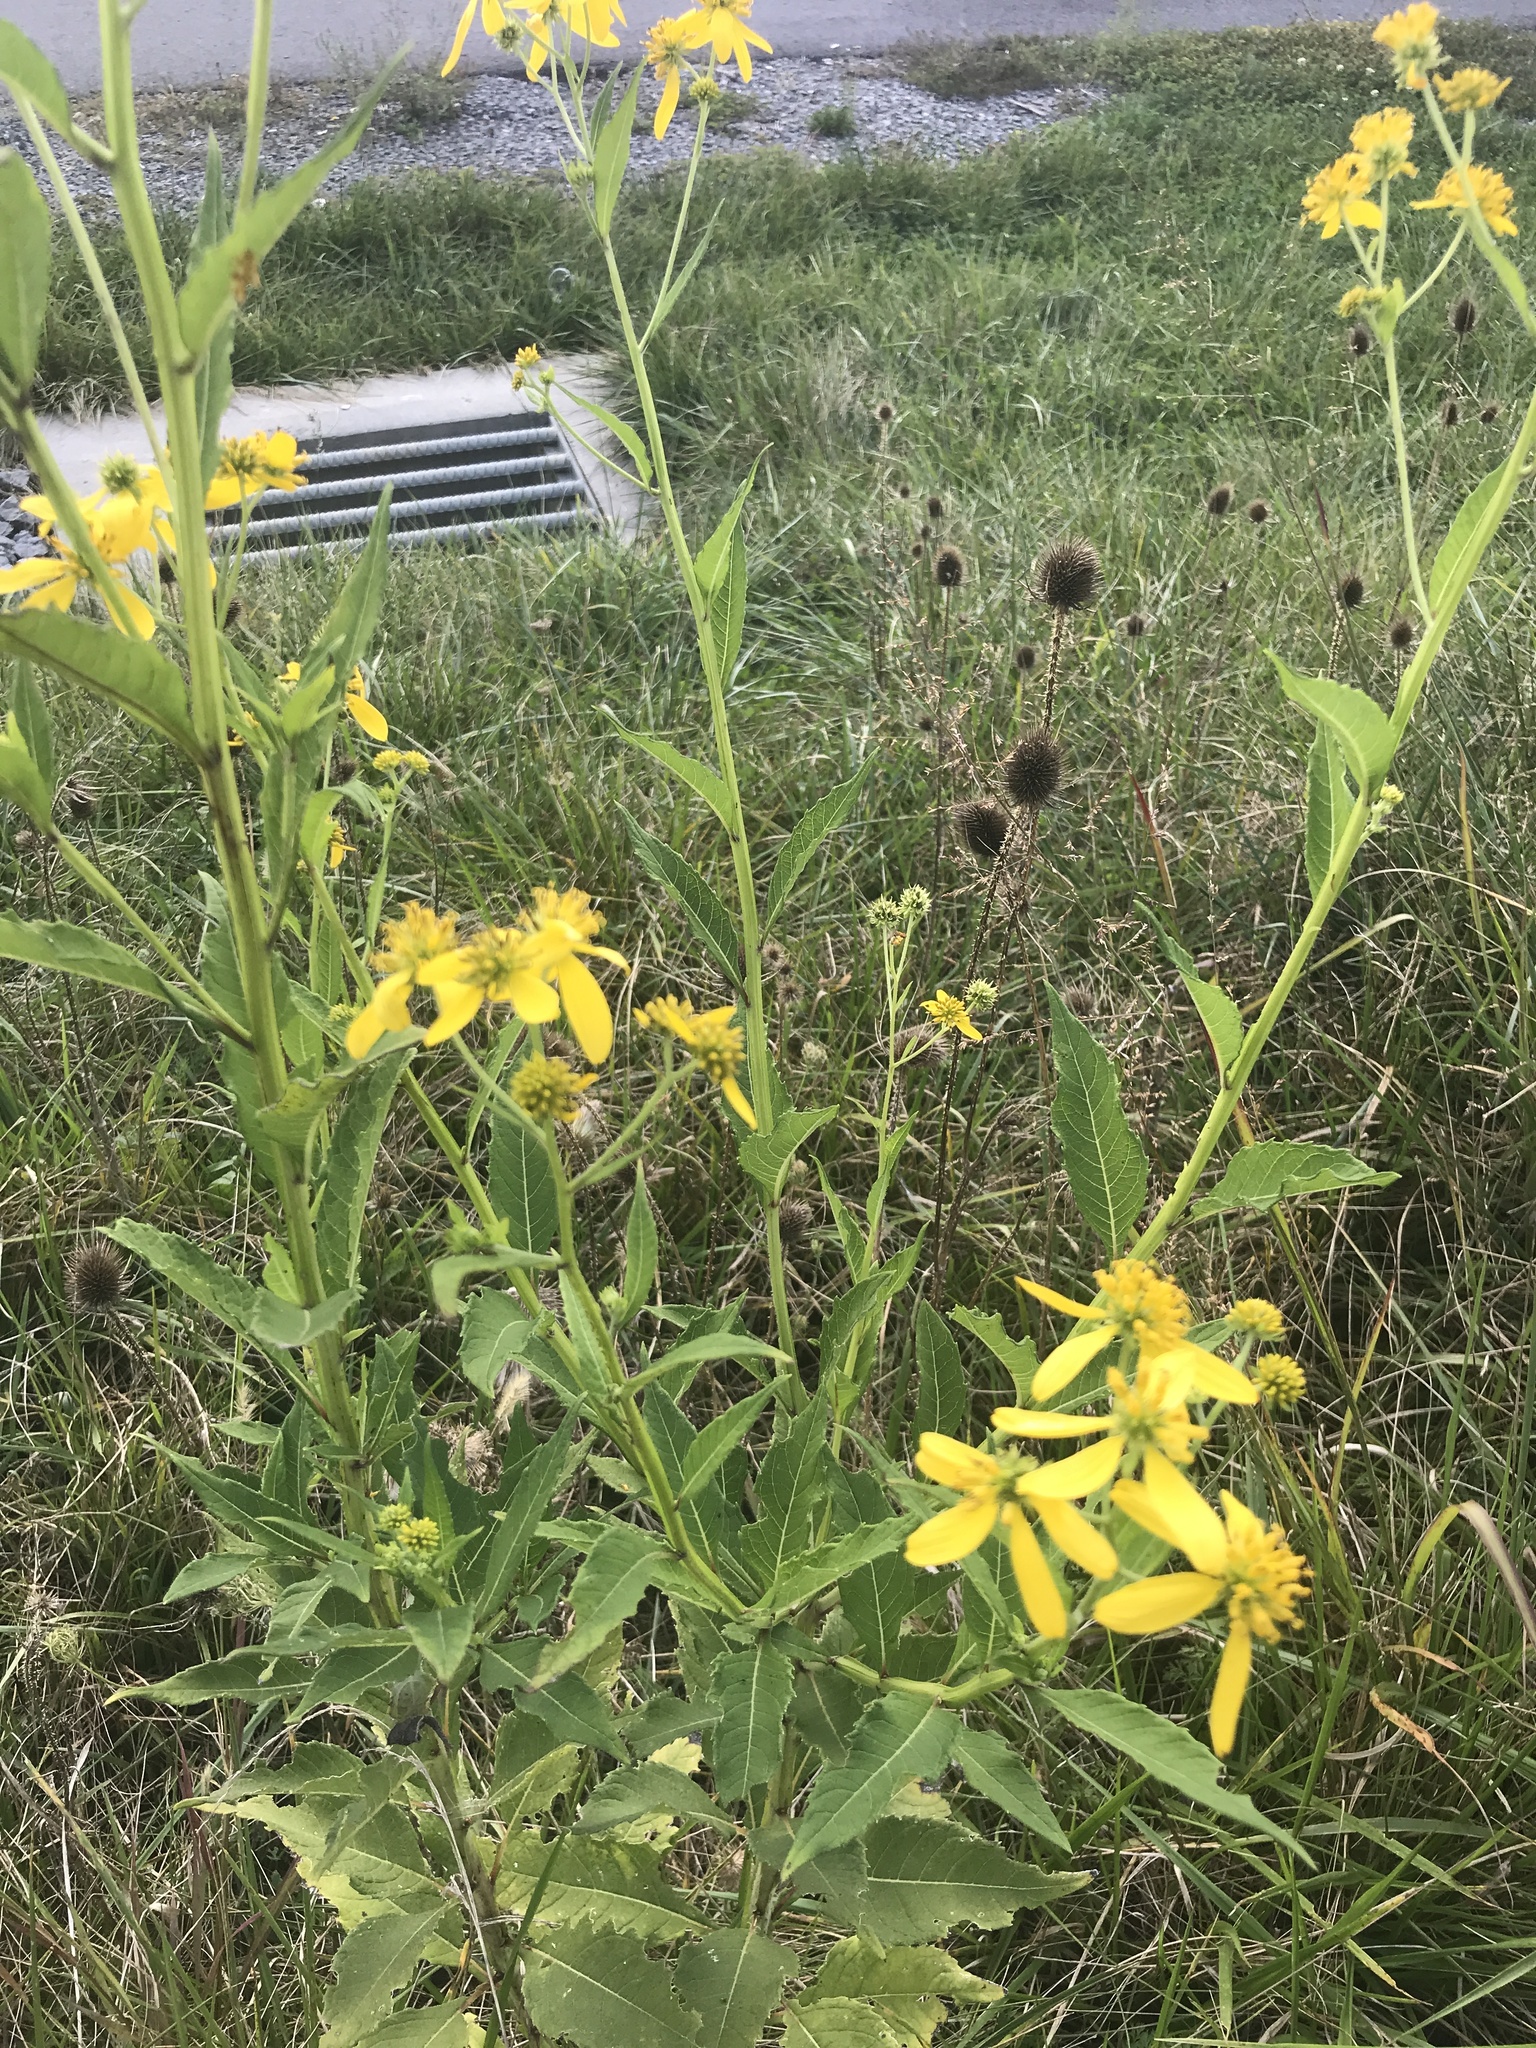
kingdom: Plantae
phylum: Tracheophyta
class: Magnoliopsida
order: Asterales
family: Asteraceae
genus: Verbesina
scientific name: Verbesina alternifolia
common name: Wingstem
